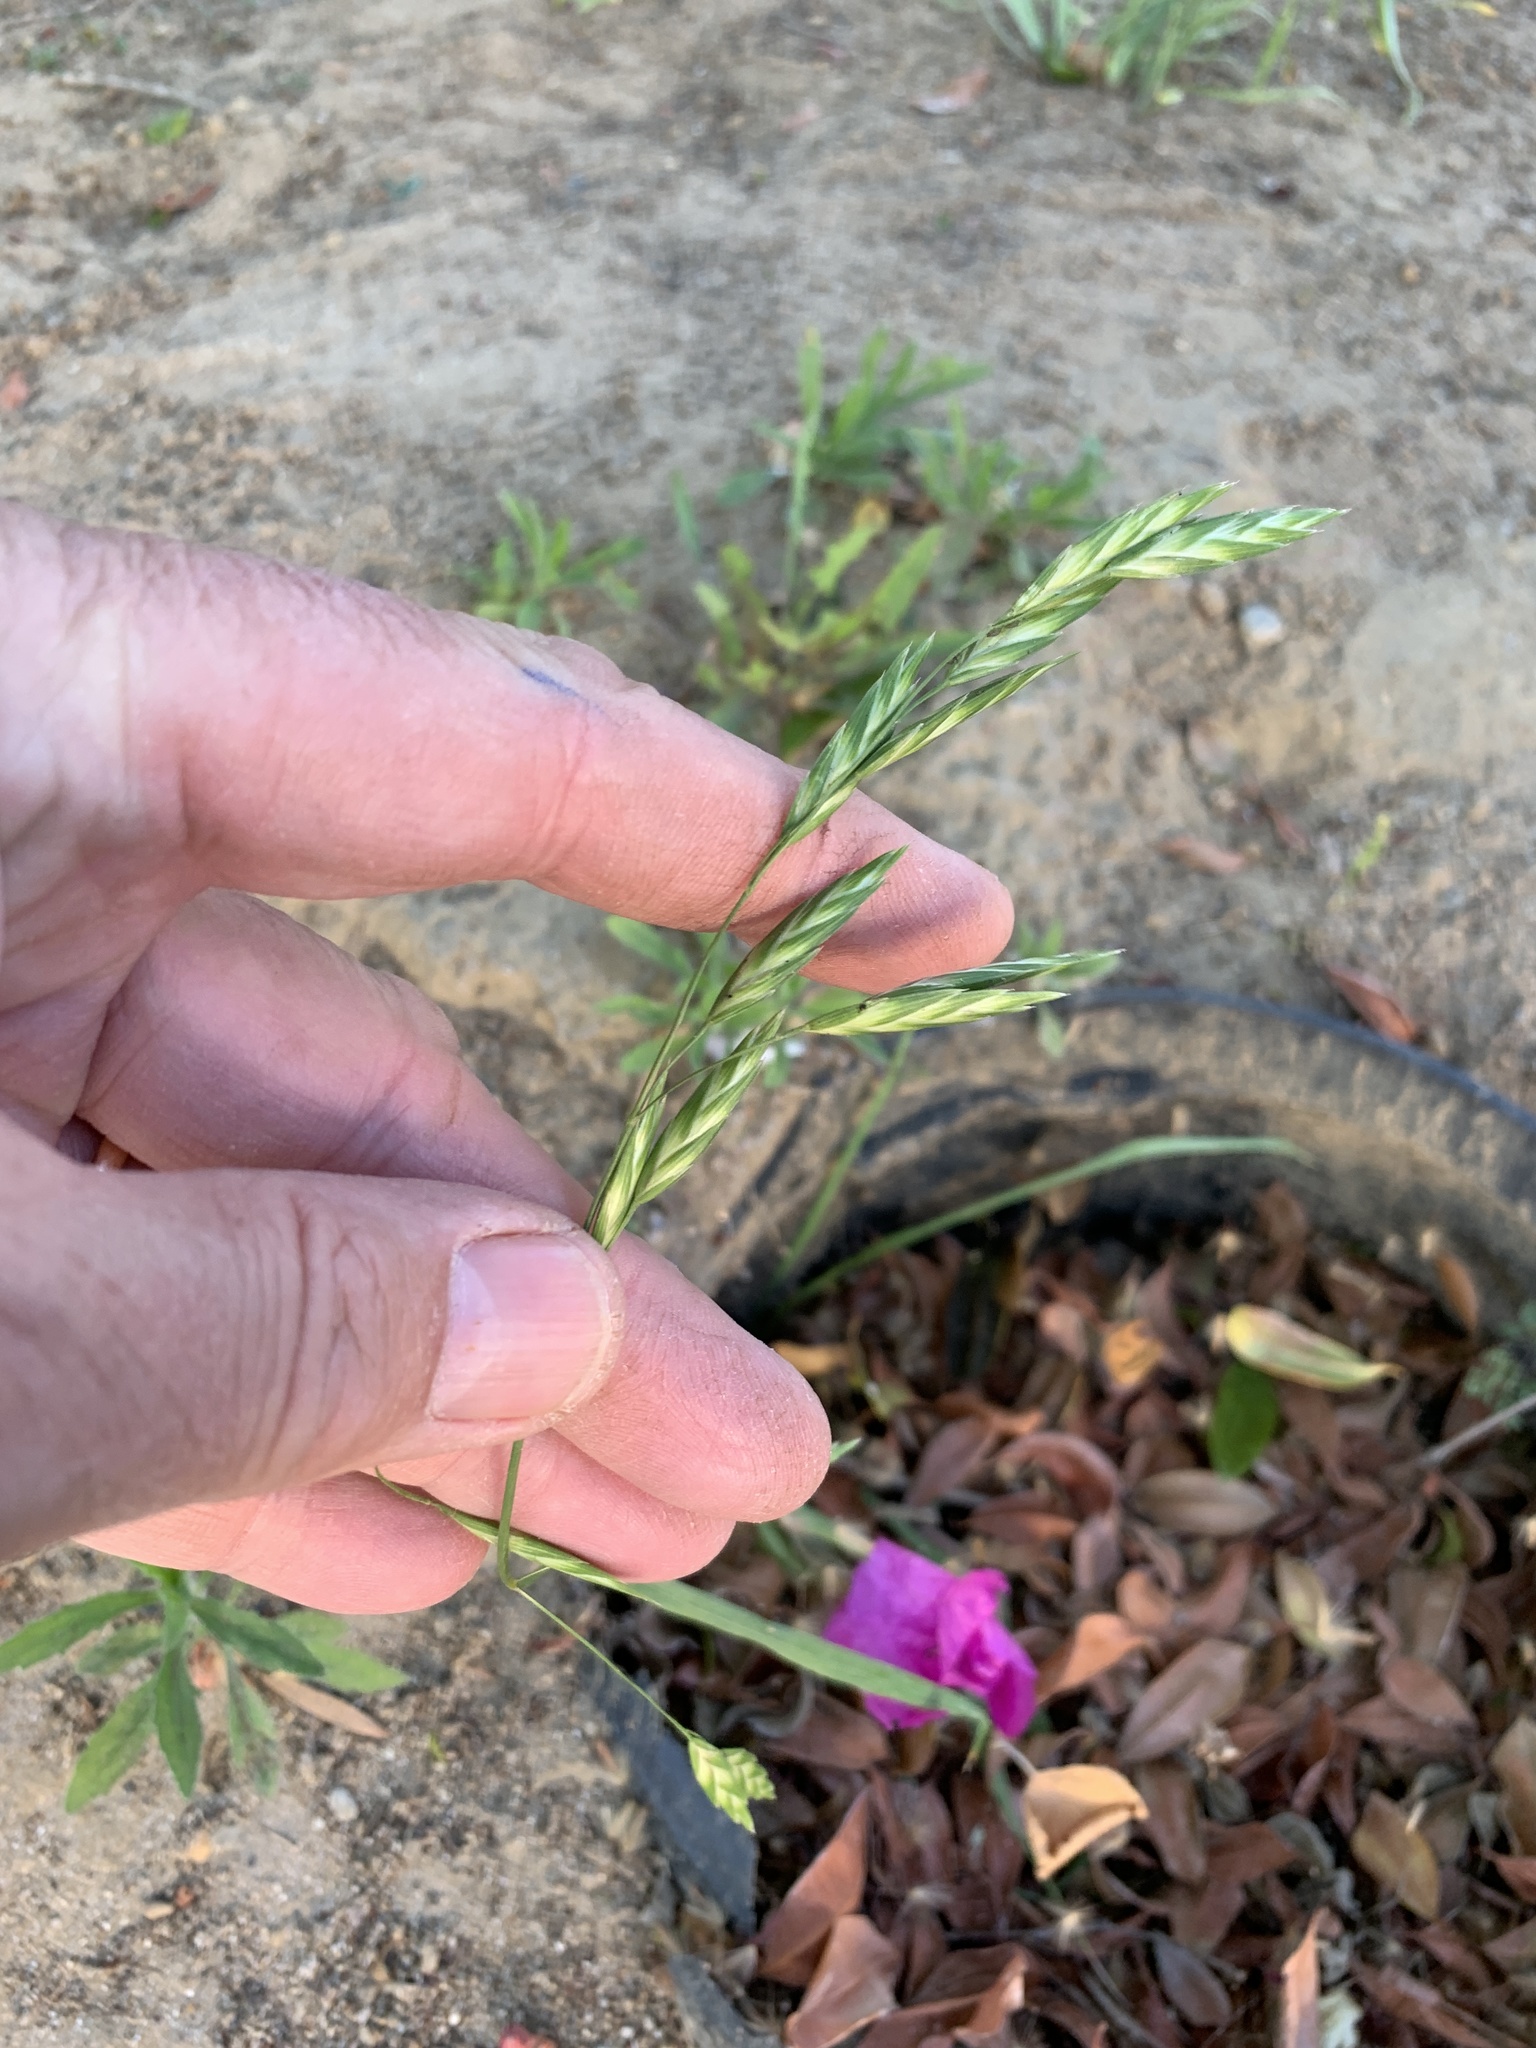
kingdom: Plantae
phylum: Tracheophyta
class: Liliopsida
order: Poales
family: Poaceae
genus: Bromus
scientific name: Bromus catharticus
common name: Rescuegrass
